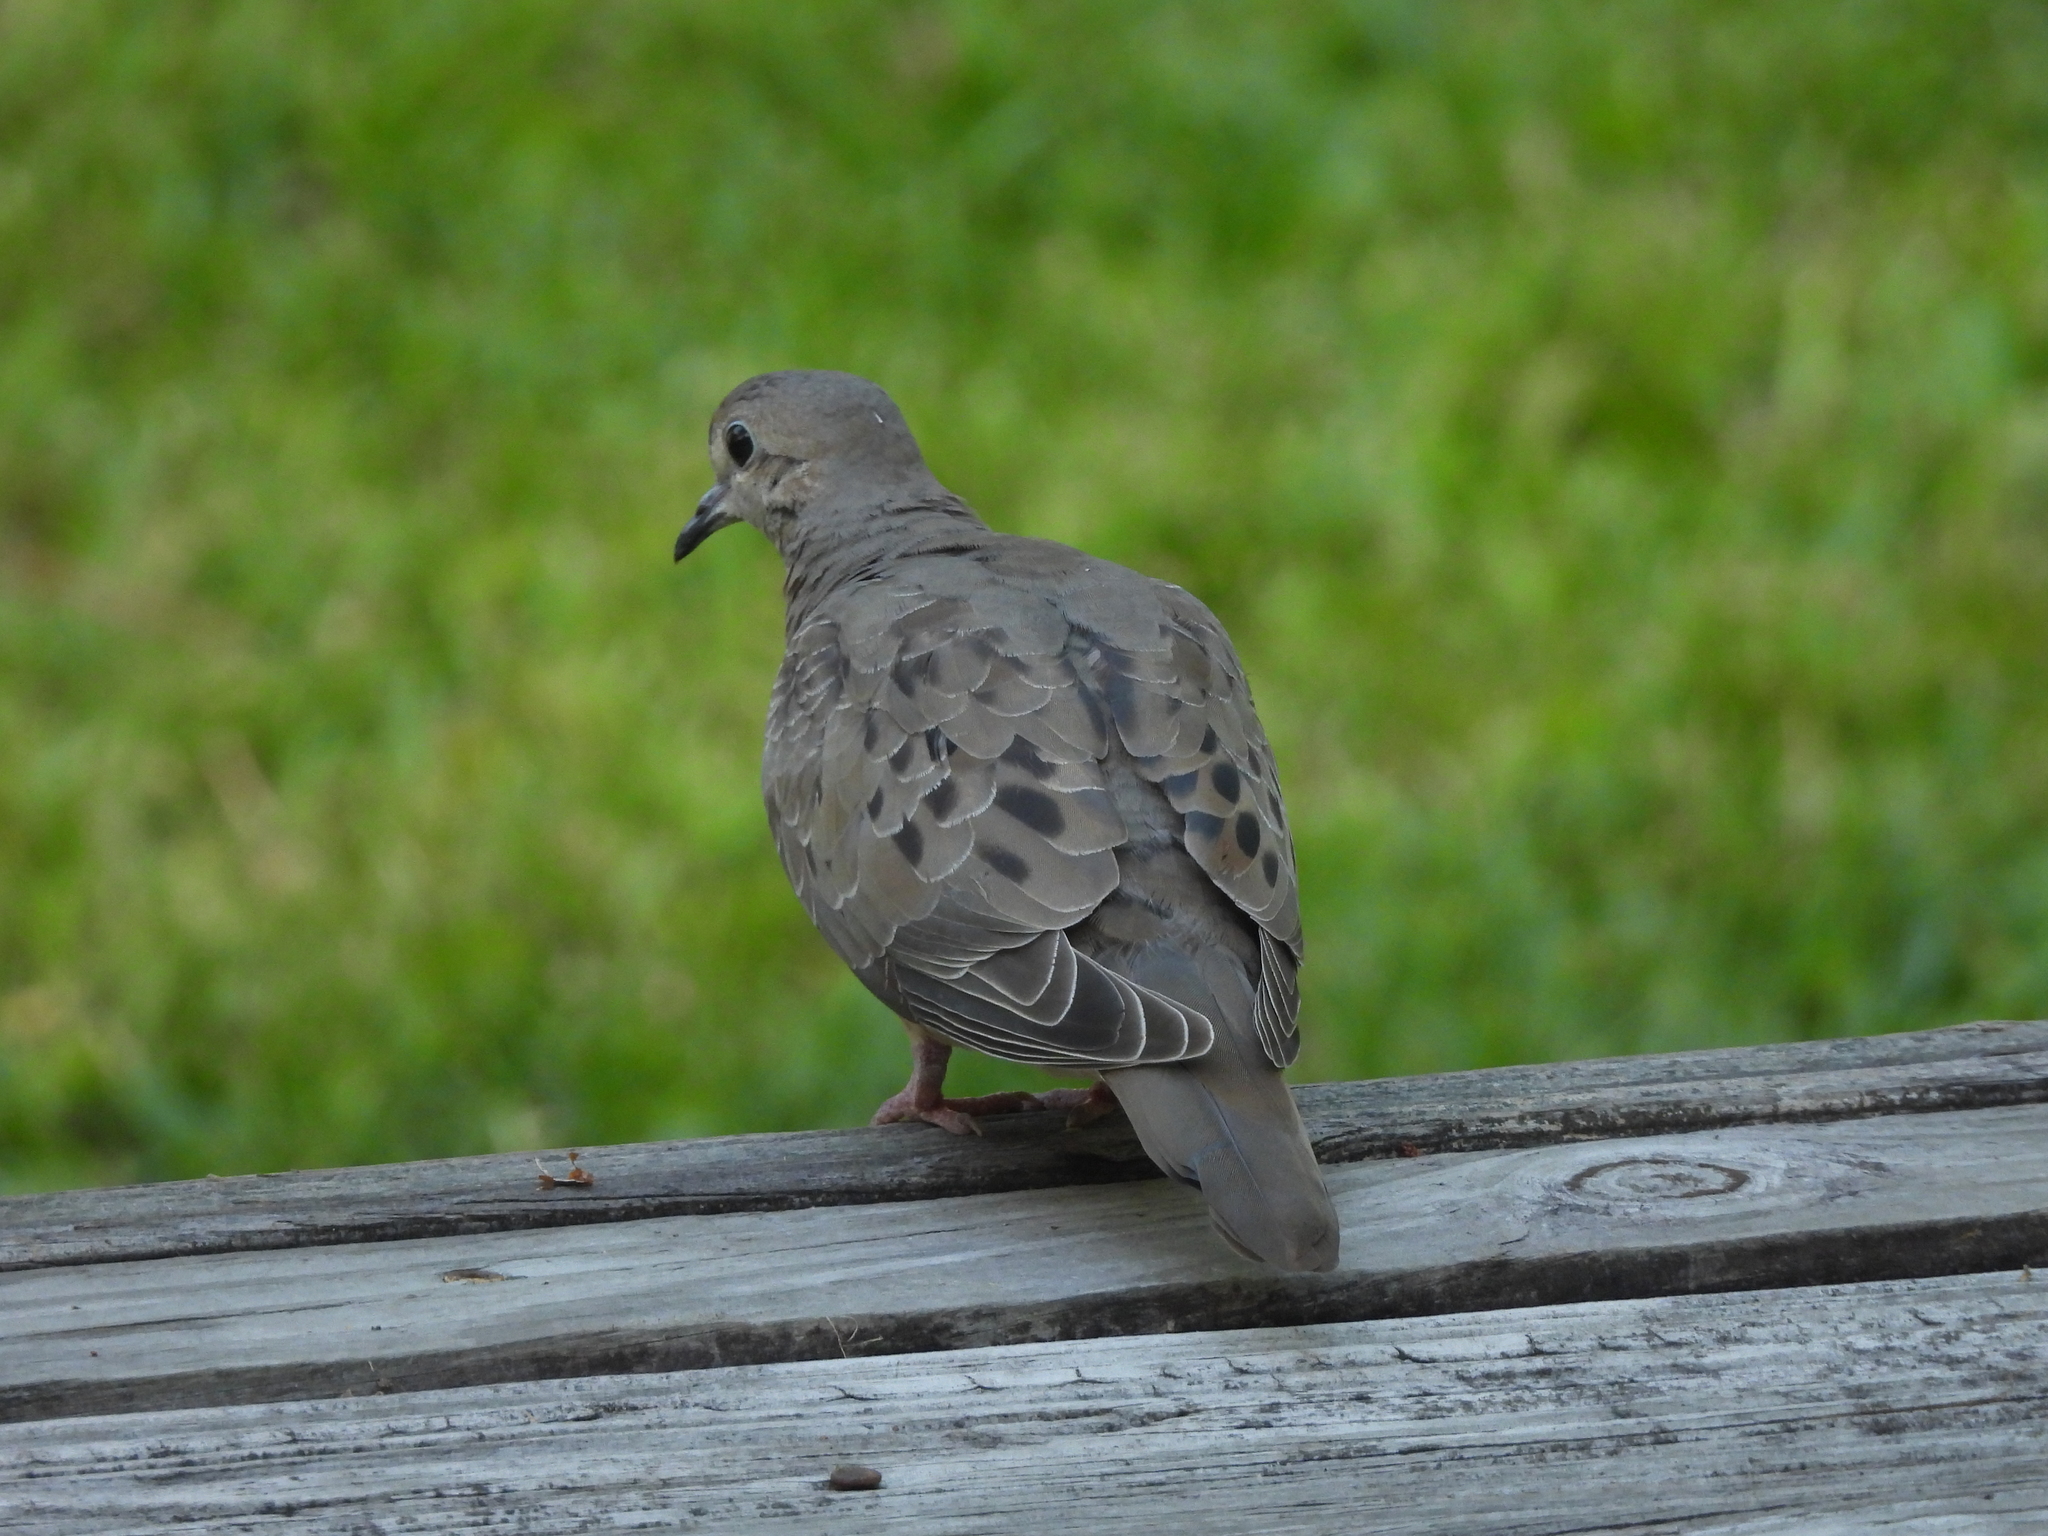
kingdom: Animalia
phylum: Chordata
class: Aves
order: Columbiformes
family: Columbidae
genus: Zenaida
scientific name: Zenaida macroura
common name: Mourning dove
